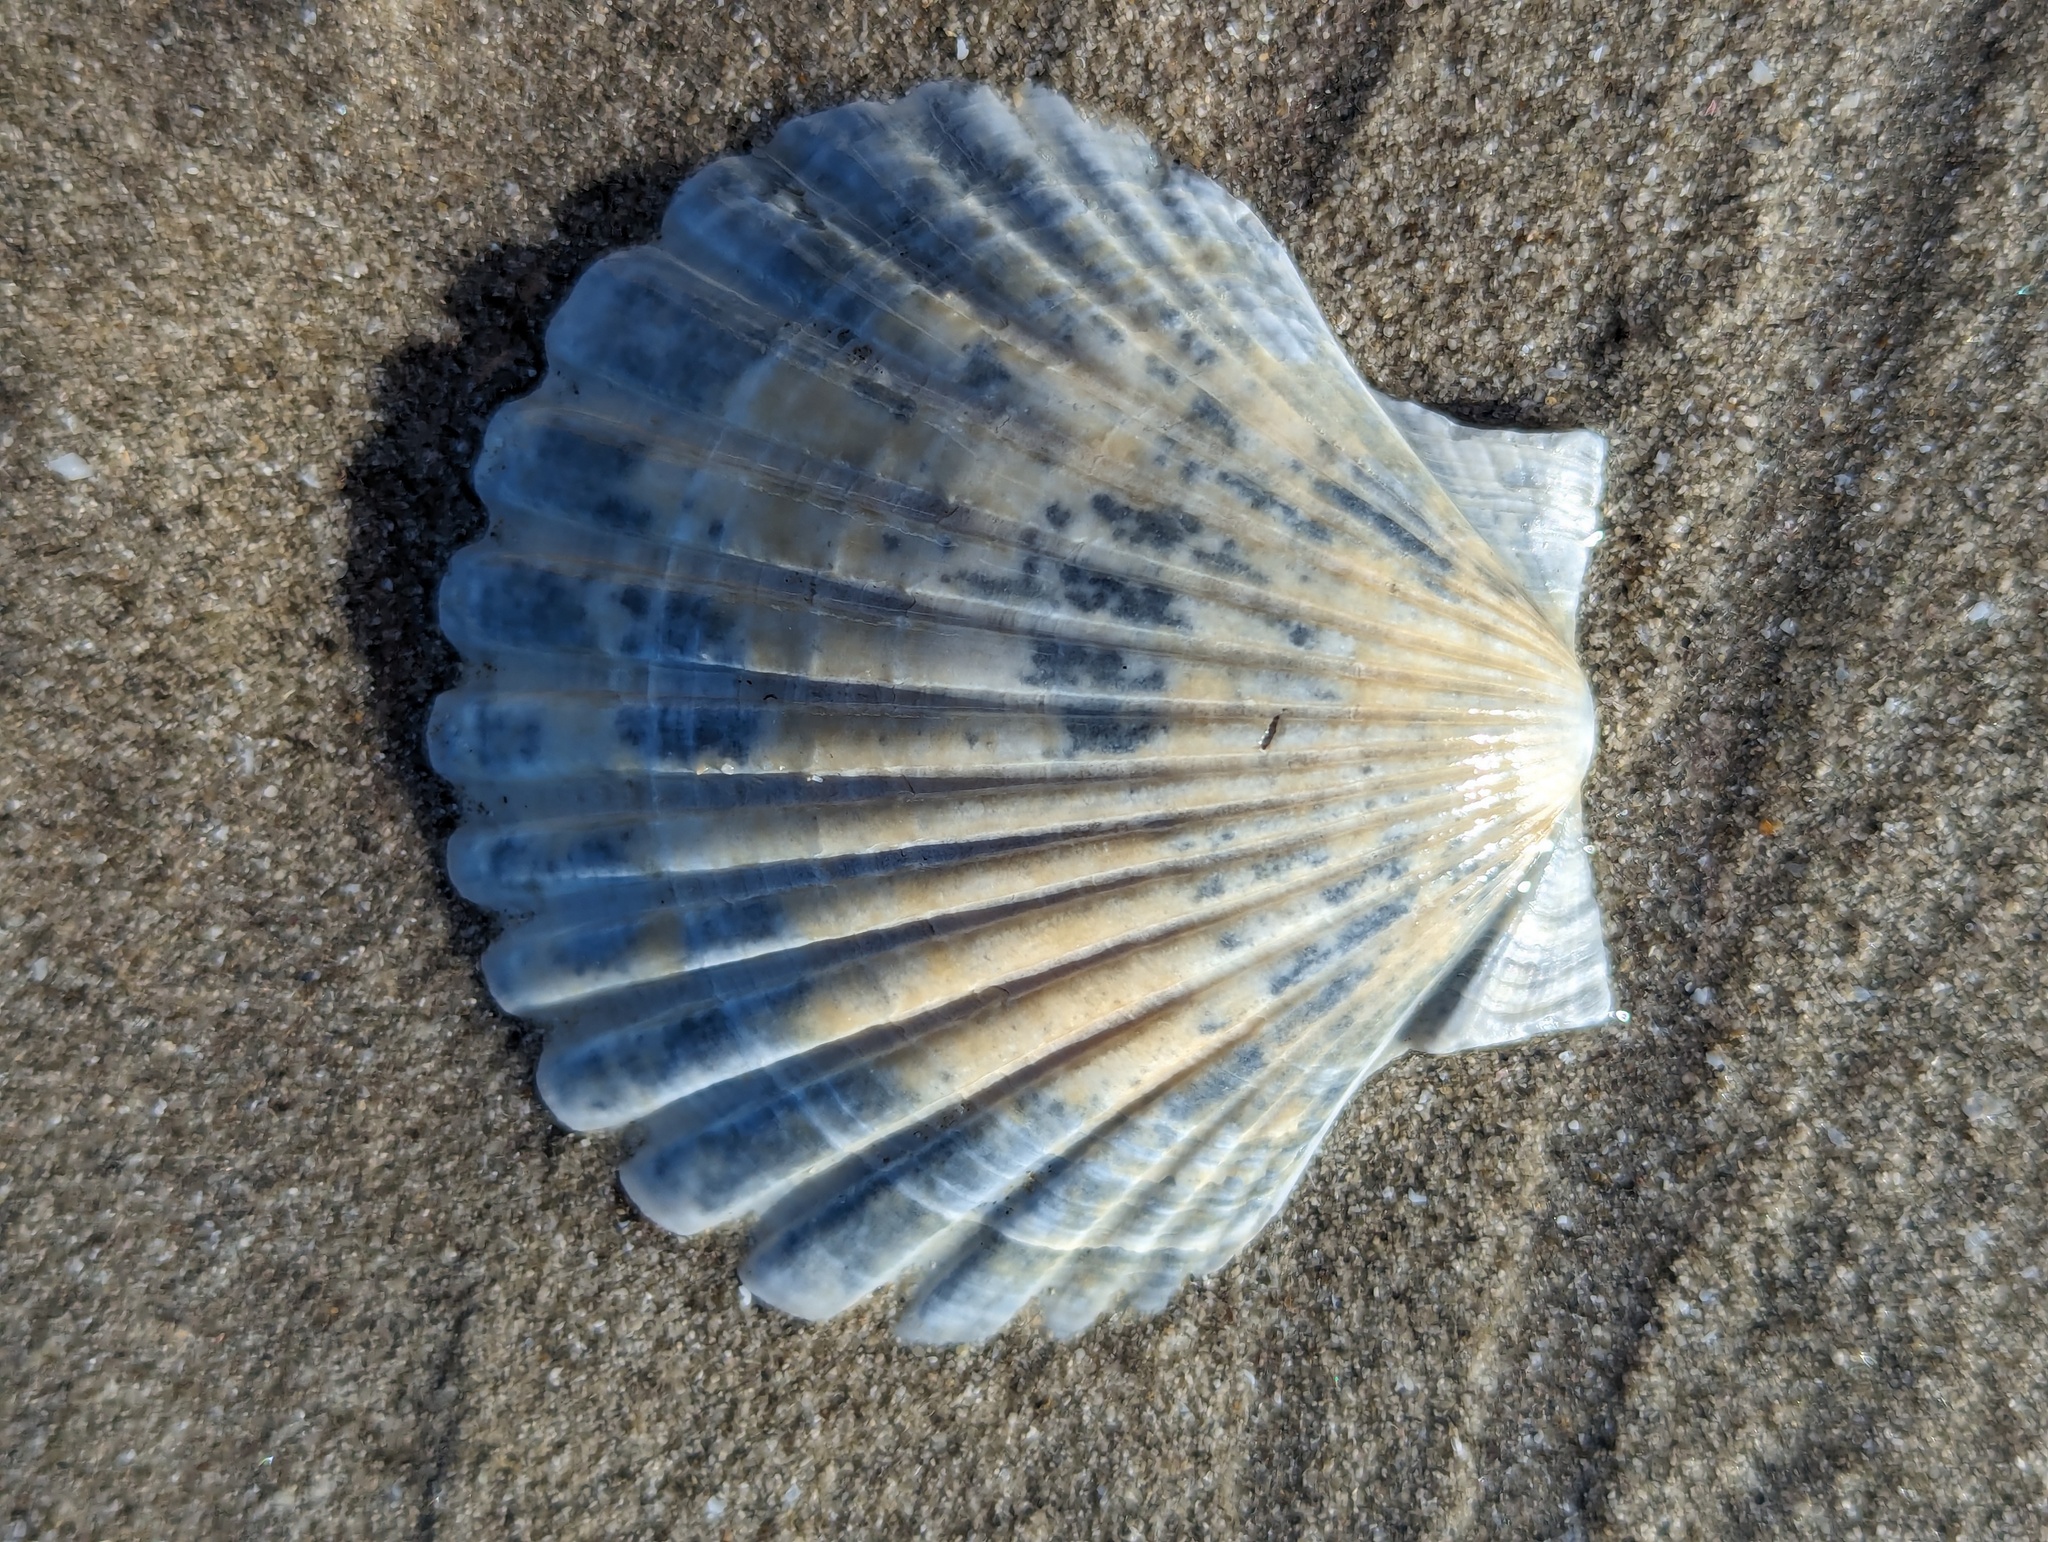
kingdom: Animalia
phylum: Mollusca
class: Bivalvia
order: Pectinida
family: Pectinidae
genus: Pecten
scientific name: Pecten novaezelandiae
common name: New zealand scallop
